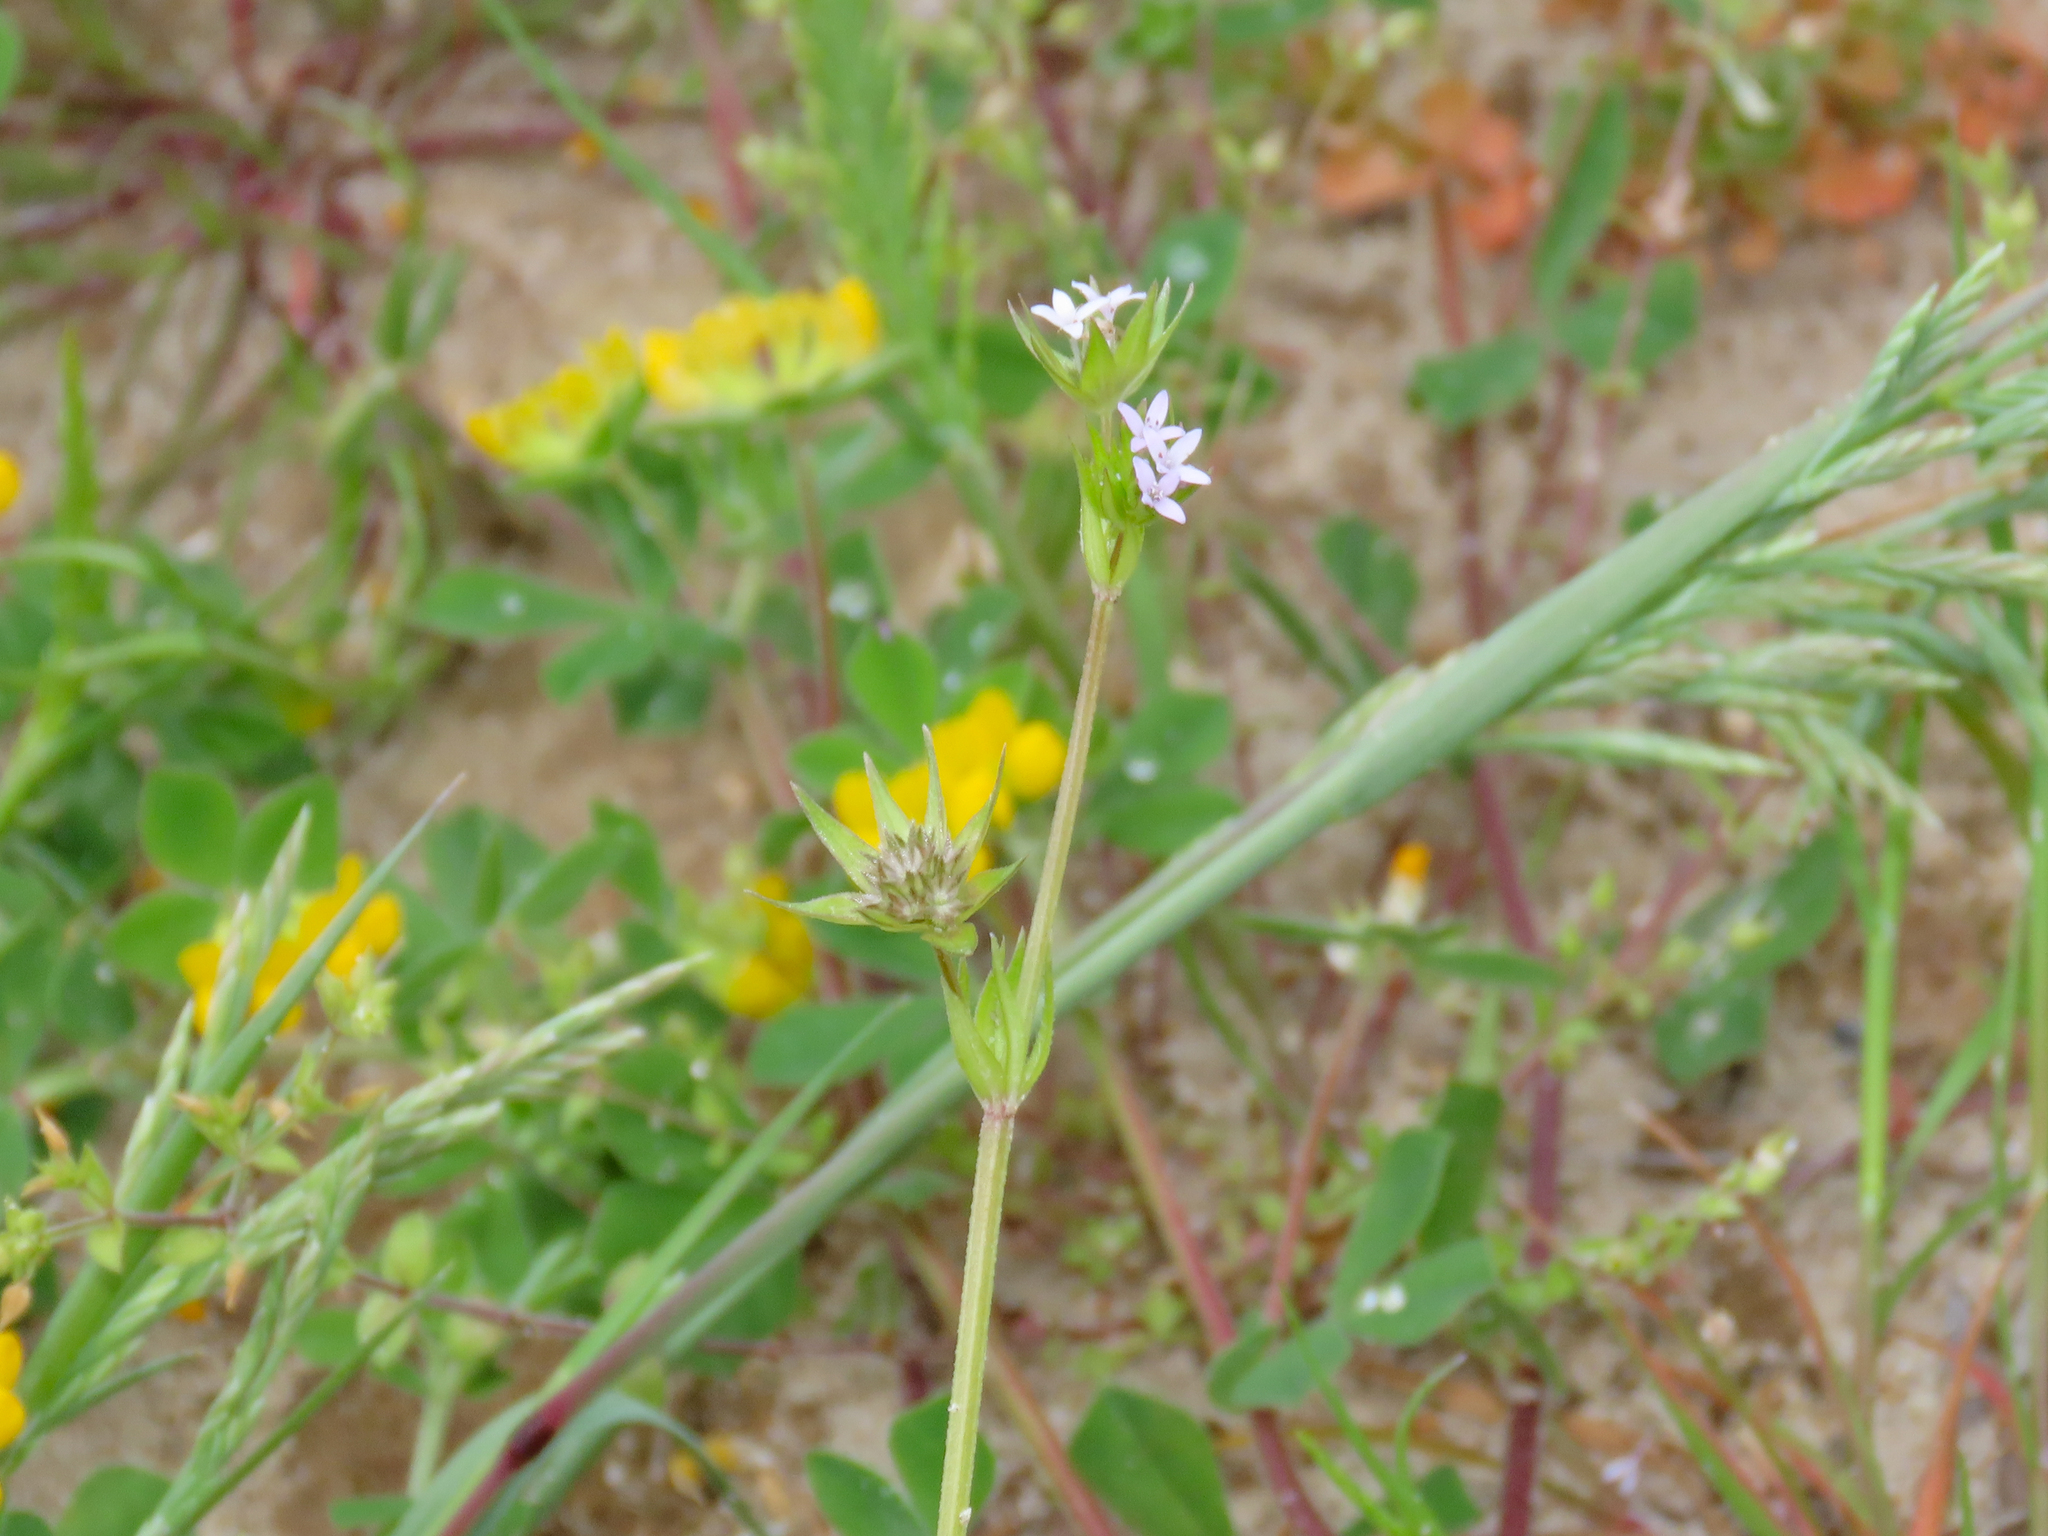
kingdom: Plantae
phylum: Tracheophyta
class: Magnoliopsida
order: Gentianales
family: Rubiaceae
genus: Sherardia
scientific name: Sherardia arvensis
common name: Field madder
